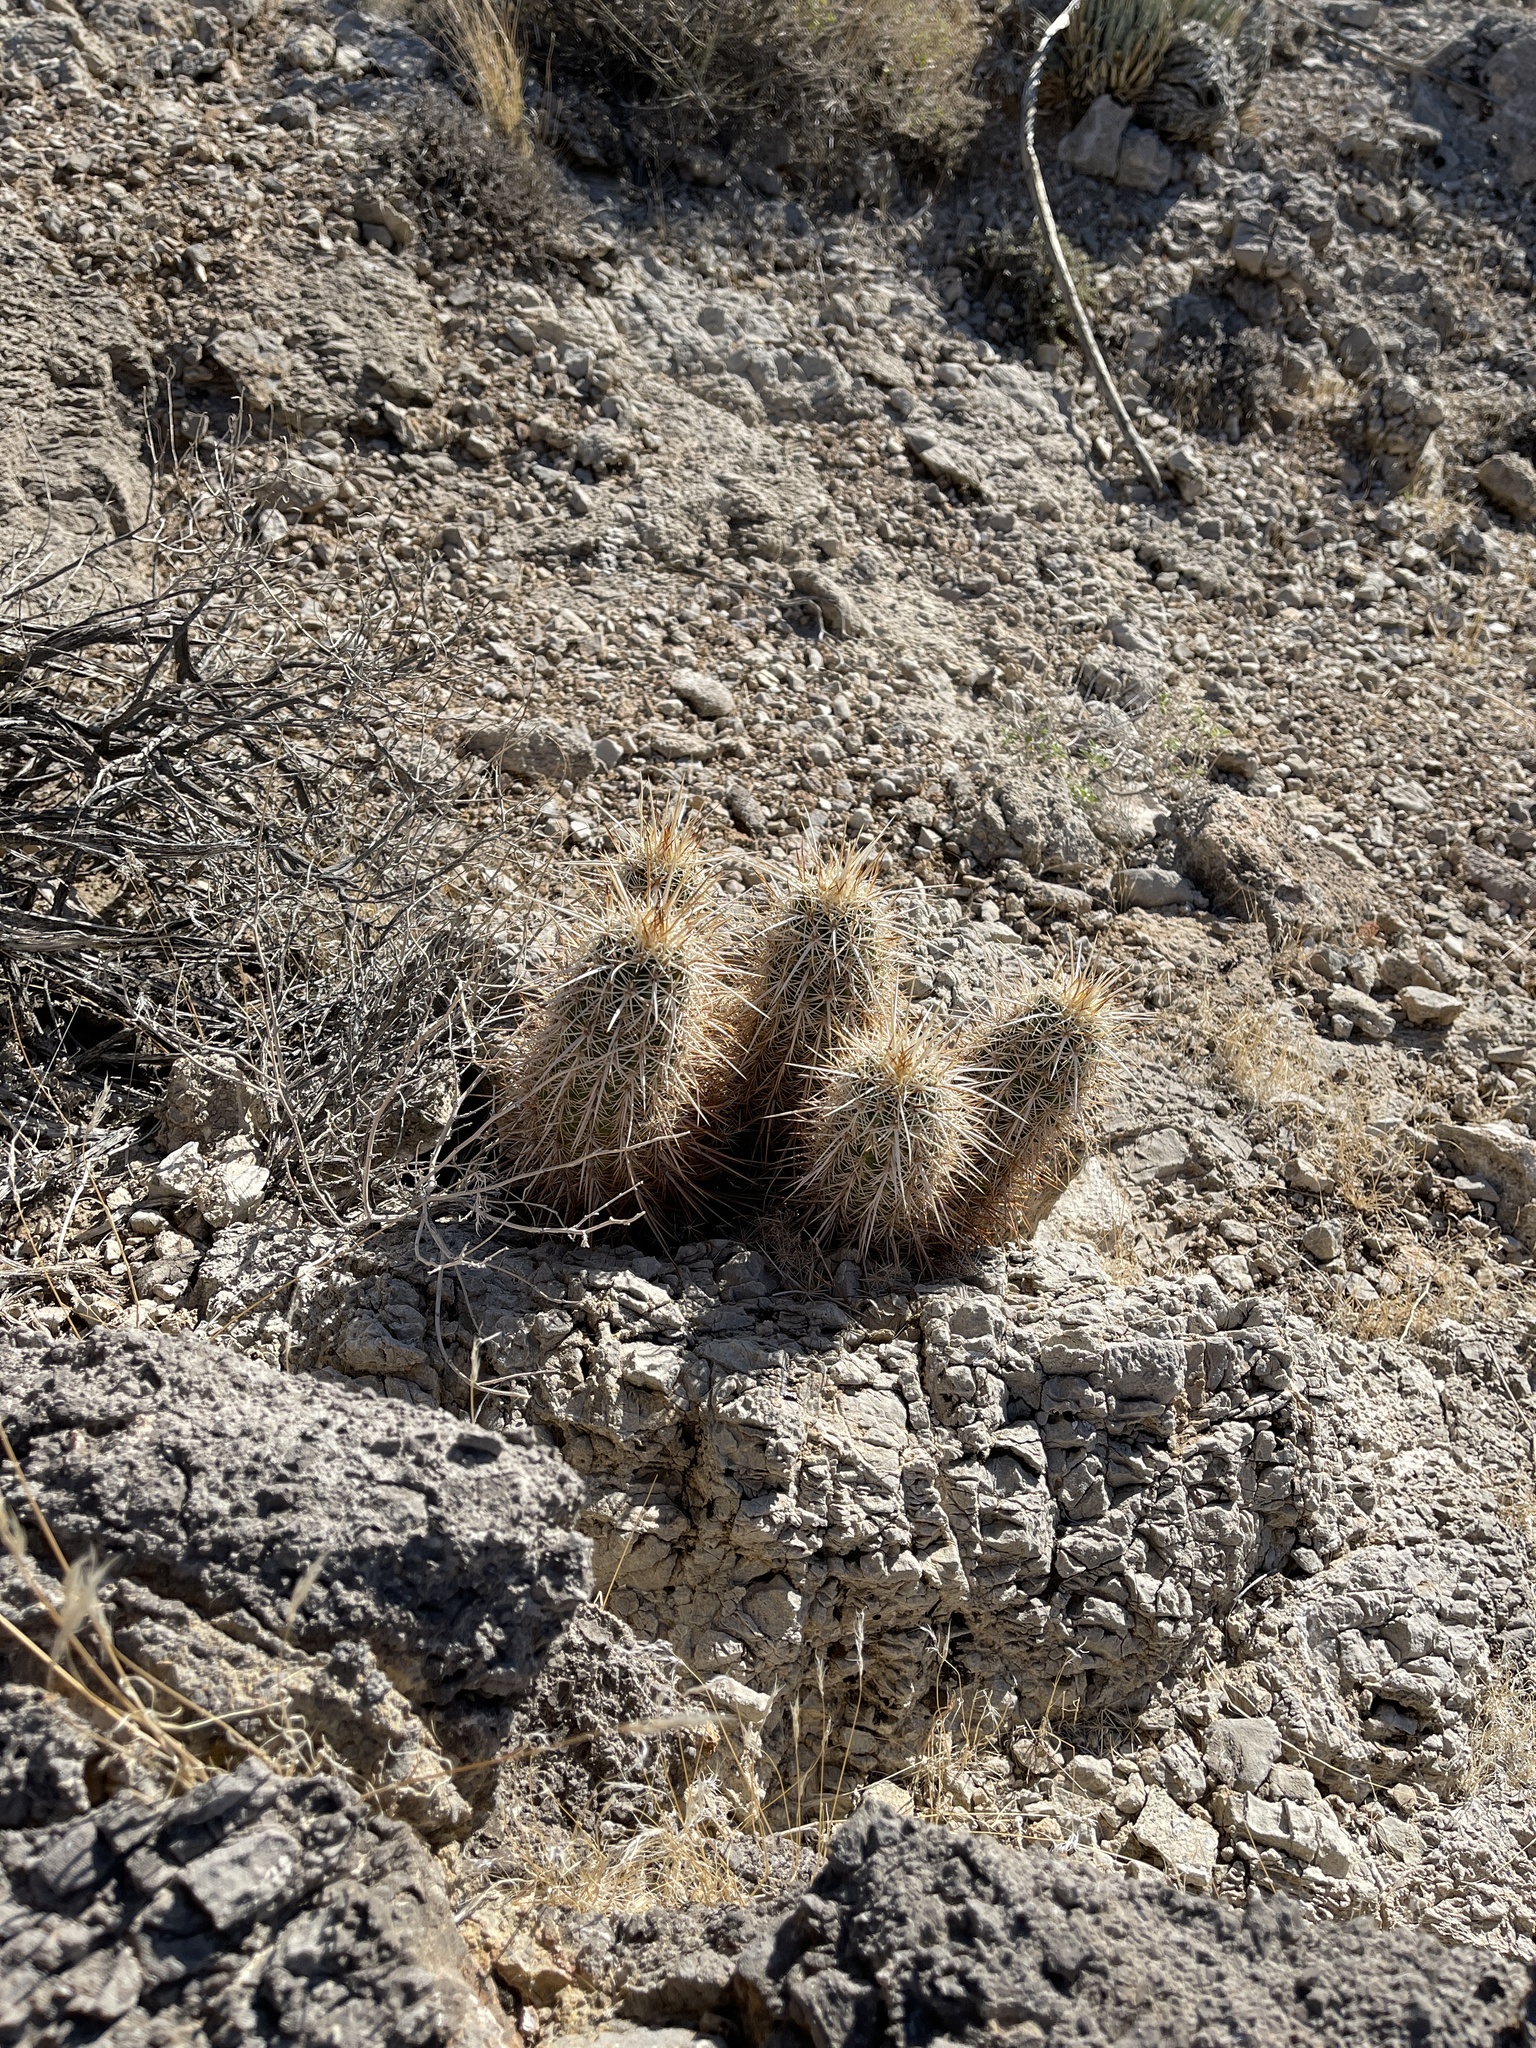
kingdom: Plantae
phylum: Tracheophyta
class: Magnoliopsida
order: Caryophyllales
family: Cactaceae
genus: Echinocereus
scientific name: Echinocereus engelmannii
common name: Engelmann's hedgehog cactus
